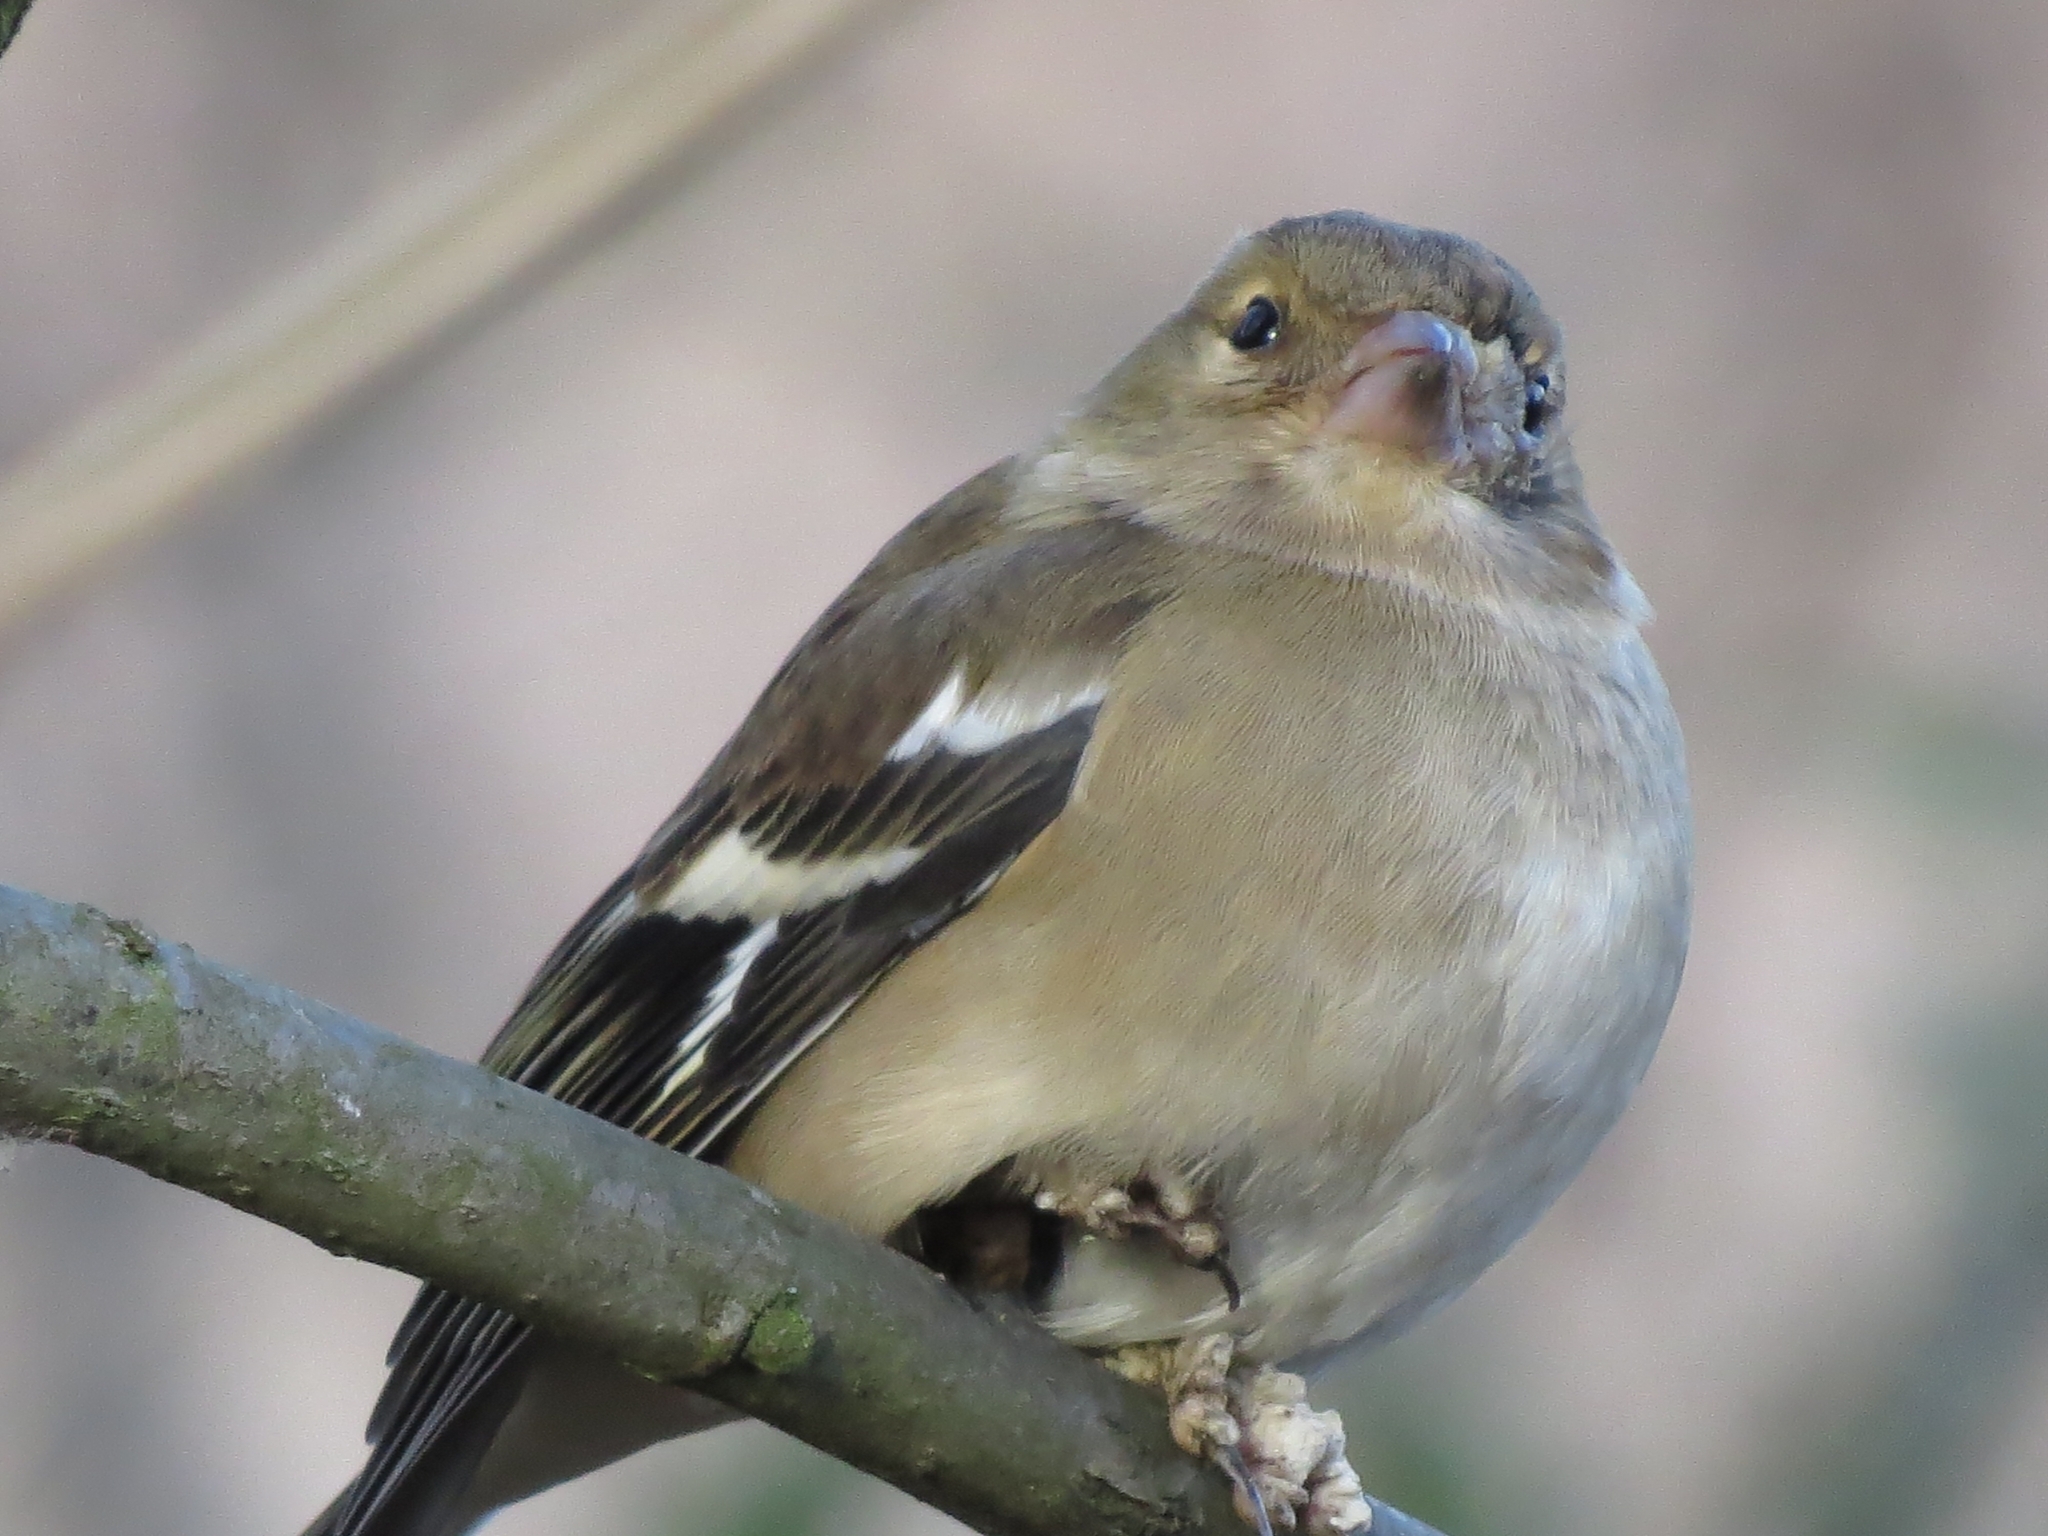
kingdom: Animalia
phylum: Chordata
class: Aves
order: Passeriformes
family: Fringillidae
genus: Fringilla
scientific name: Fringilla coelebs
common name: Common chaffinch
